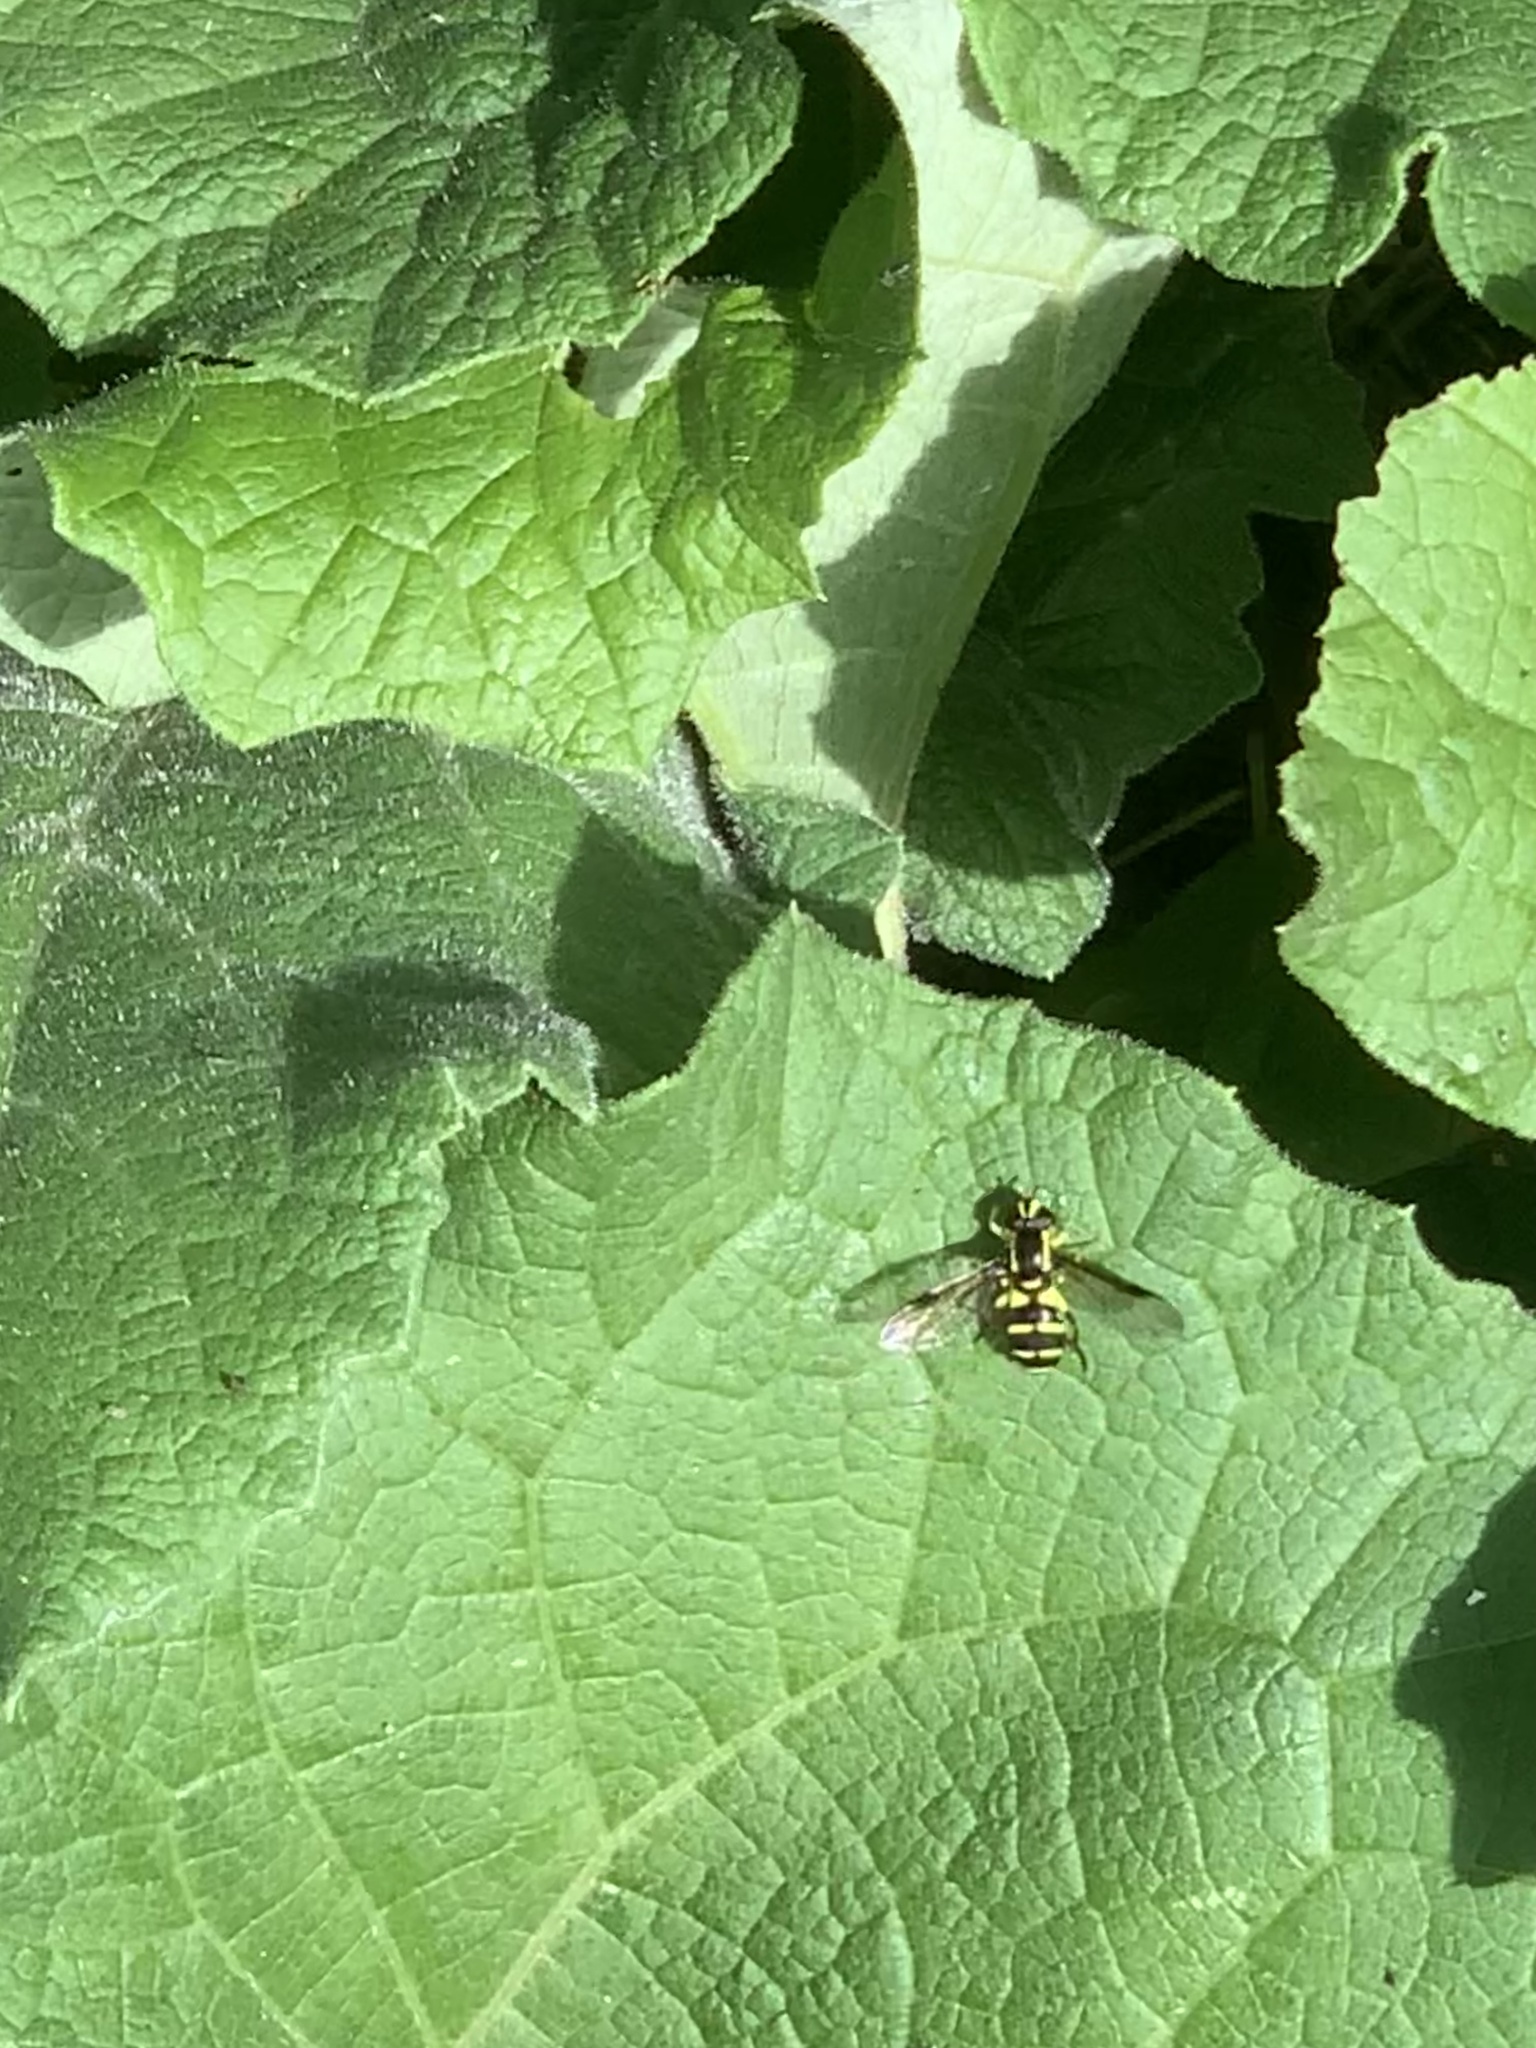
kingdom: Animalia
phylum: Arthropoda
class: Insecta
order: Diptera
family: Syrphidae
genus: Philhelius
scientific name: Philhelius pedissequum
